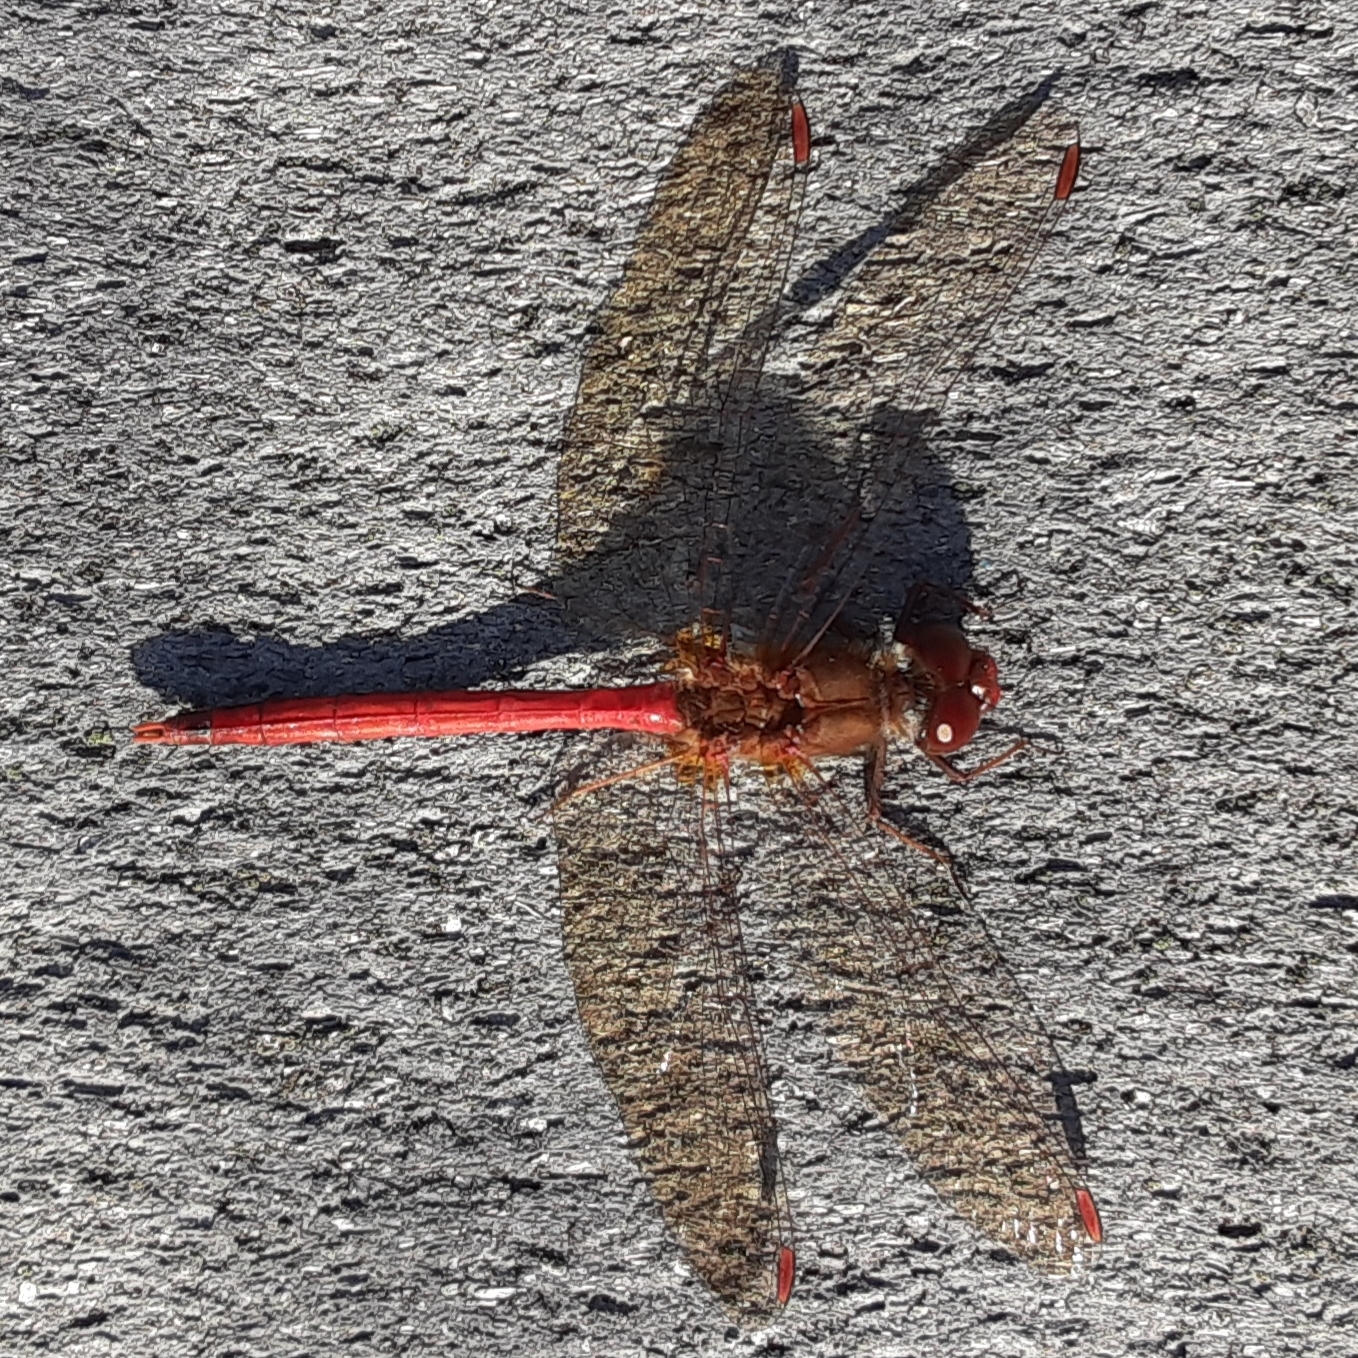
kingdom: Animalia
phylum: Arthropoda
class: Insecta
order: Odonata
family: Libellulidae
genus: Sympetrum
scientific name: Sympetrum vicinum
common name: Autumn meadowhawk
